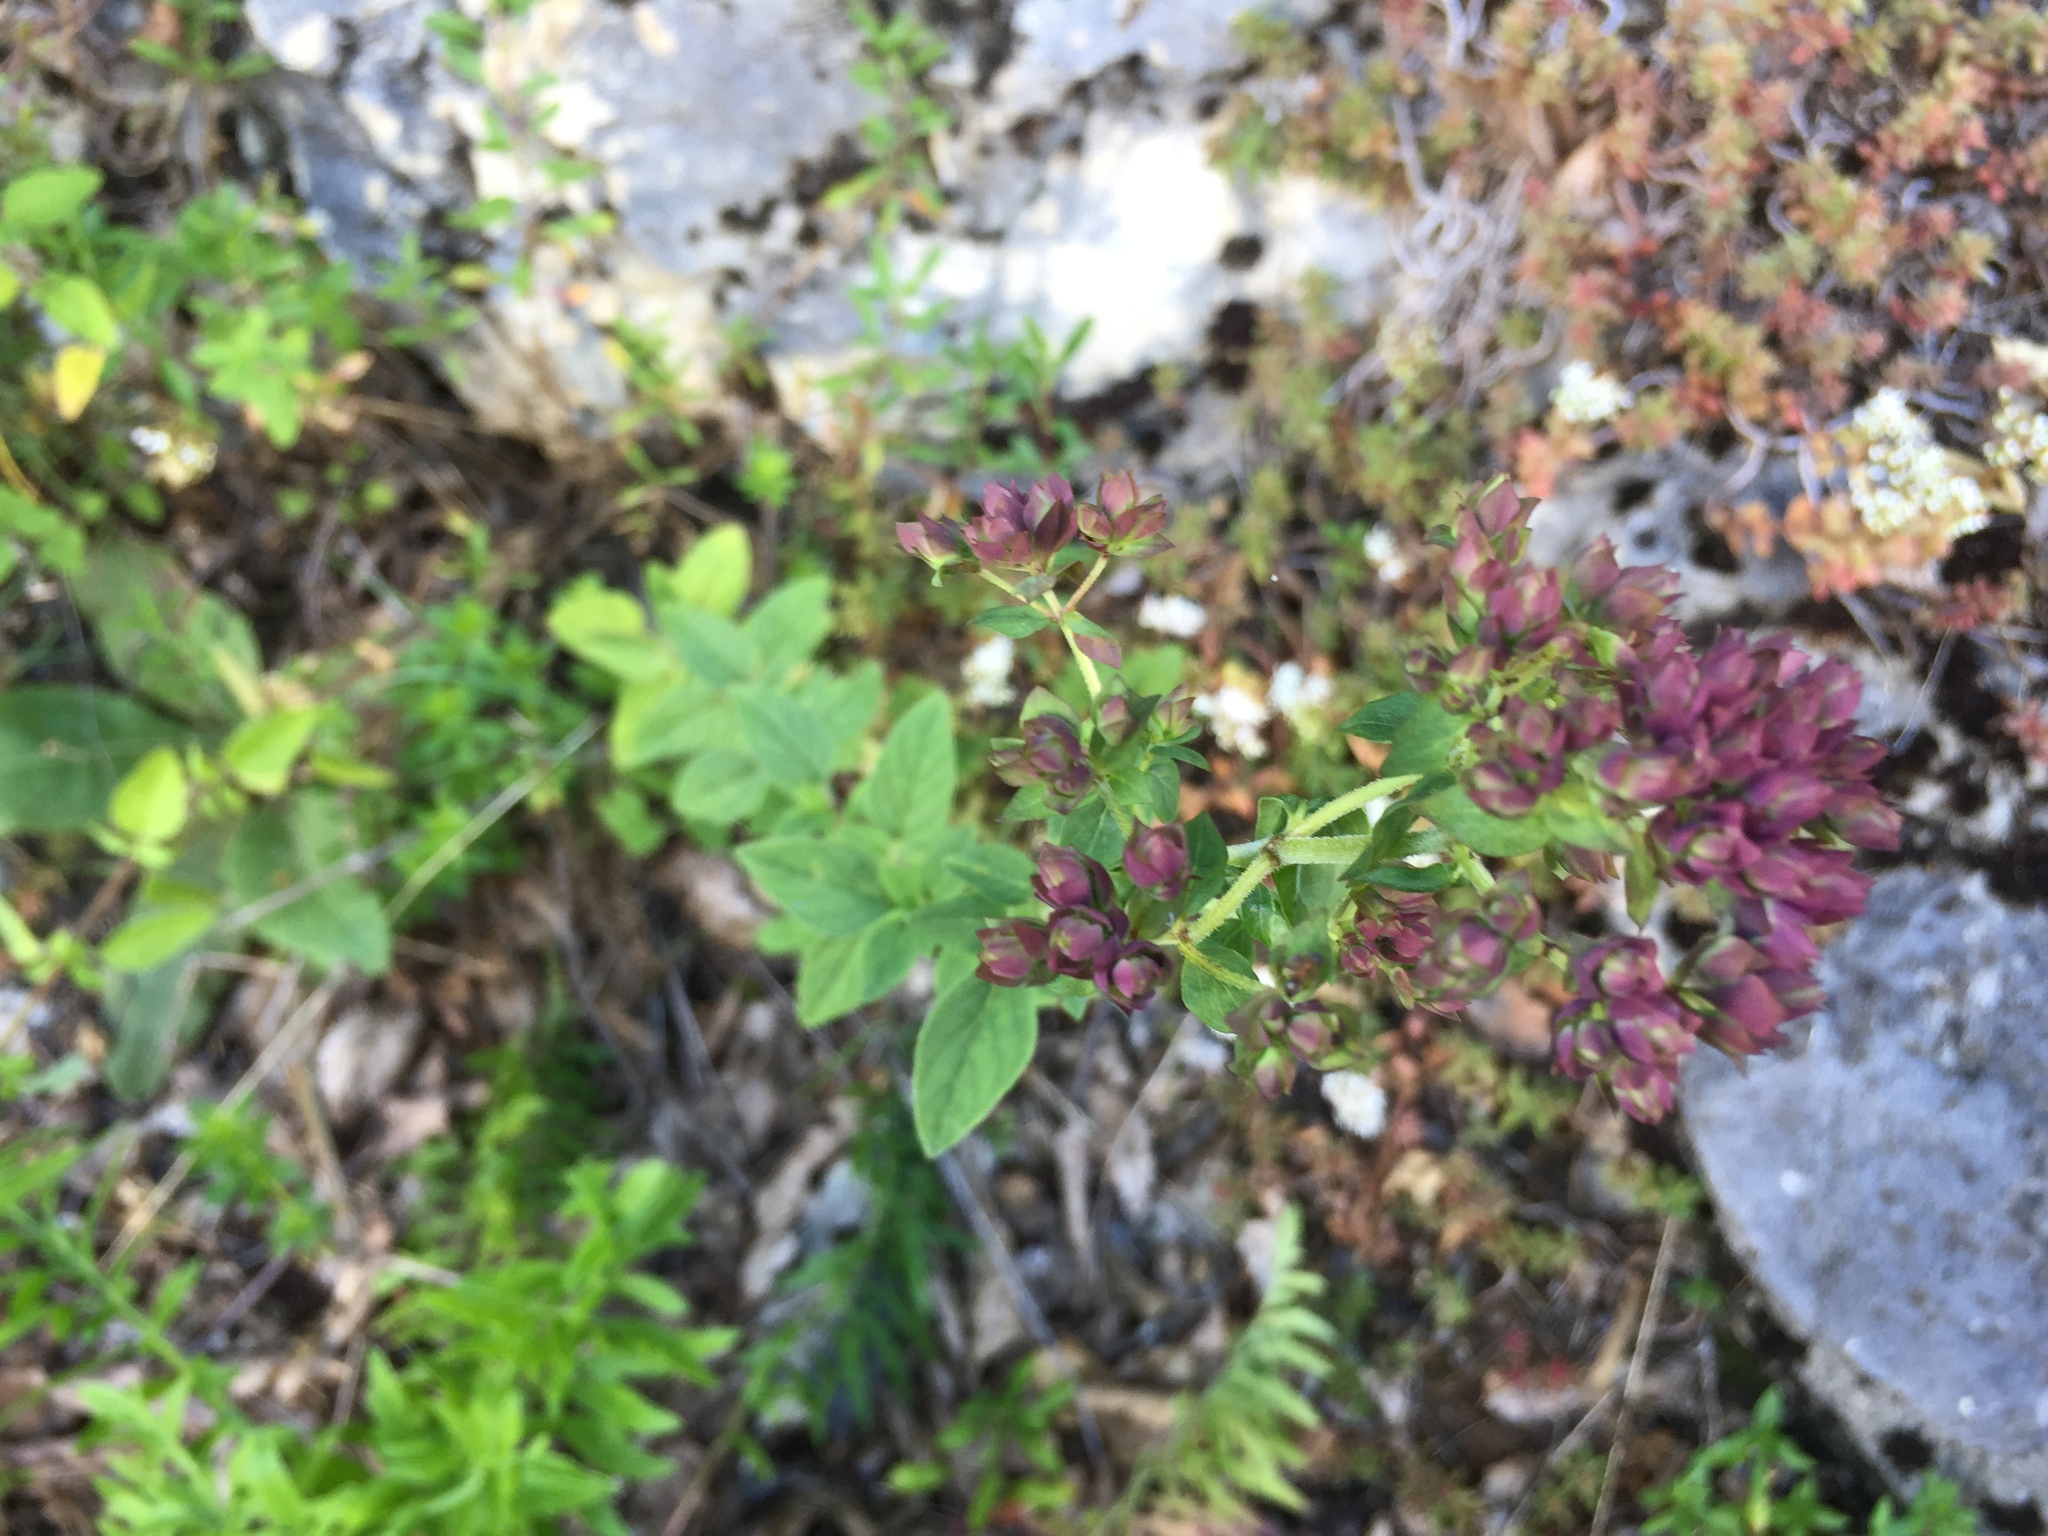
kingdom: Plantae
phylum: Tracheophyta
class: Magnoliopsida
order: Lamiales
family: Lamiaceae
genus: Origanum
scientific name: Origanum vulgare
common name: Wild marjoram
